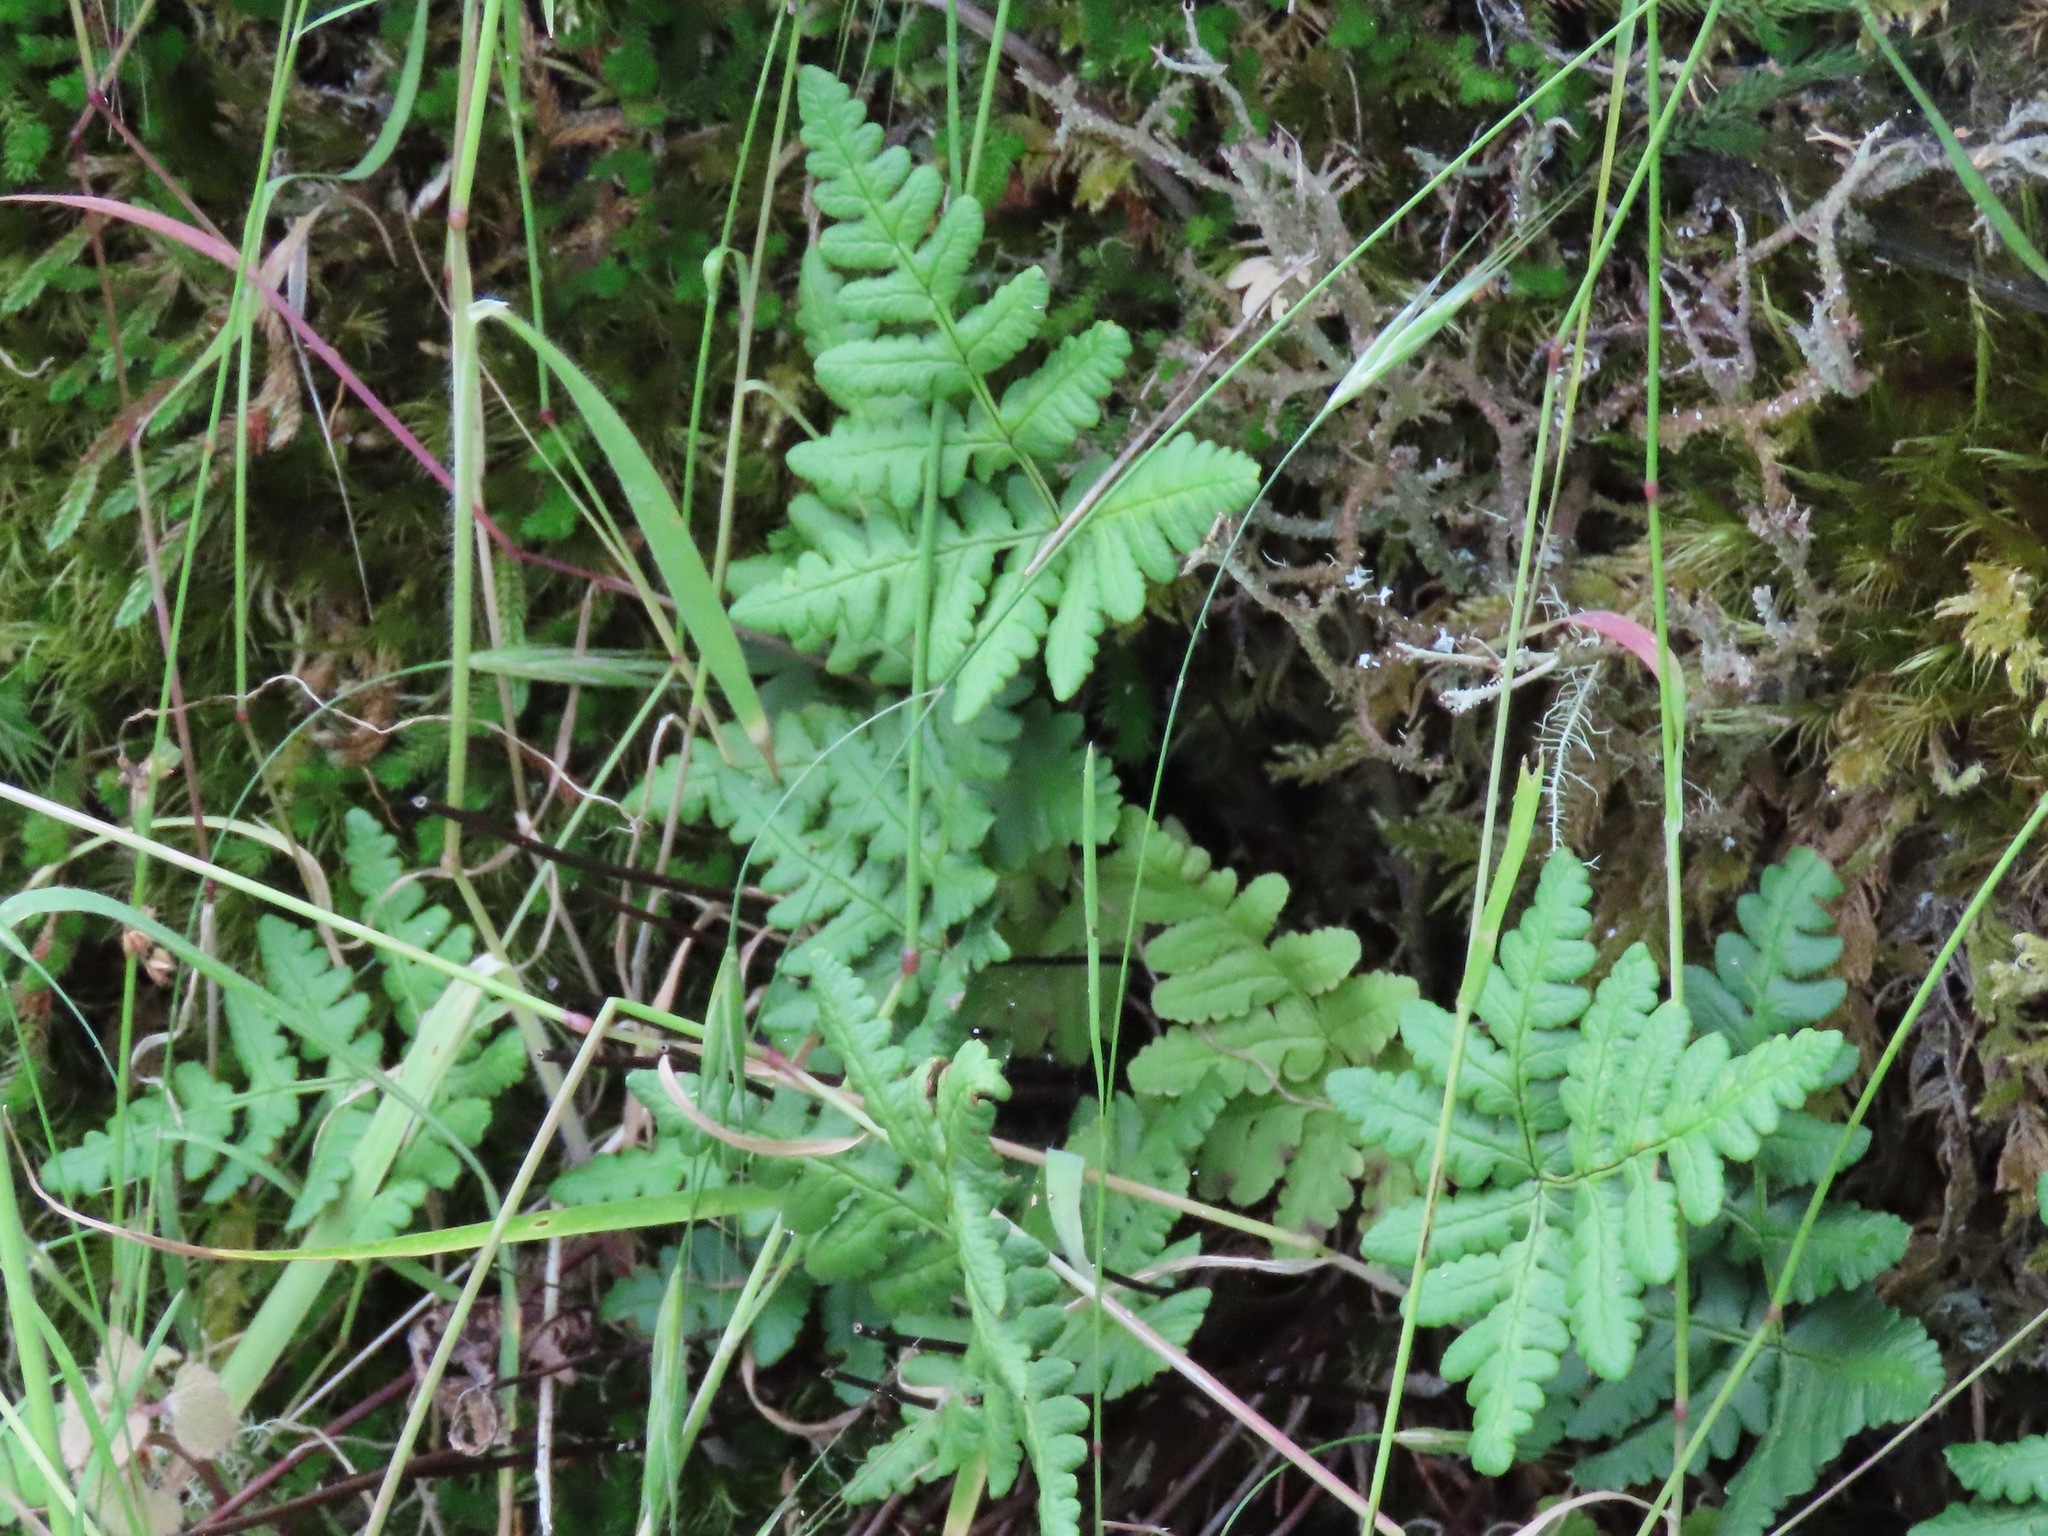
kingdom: Plantae
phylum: Tracheophyta
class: Polypodiopsida
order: Polypodiales
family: Pteridaceae
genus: Pentagramma
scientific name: Pentagramma triangularis
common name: Gold fern
